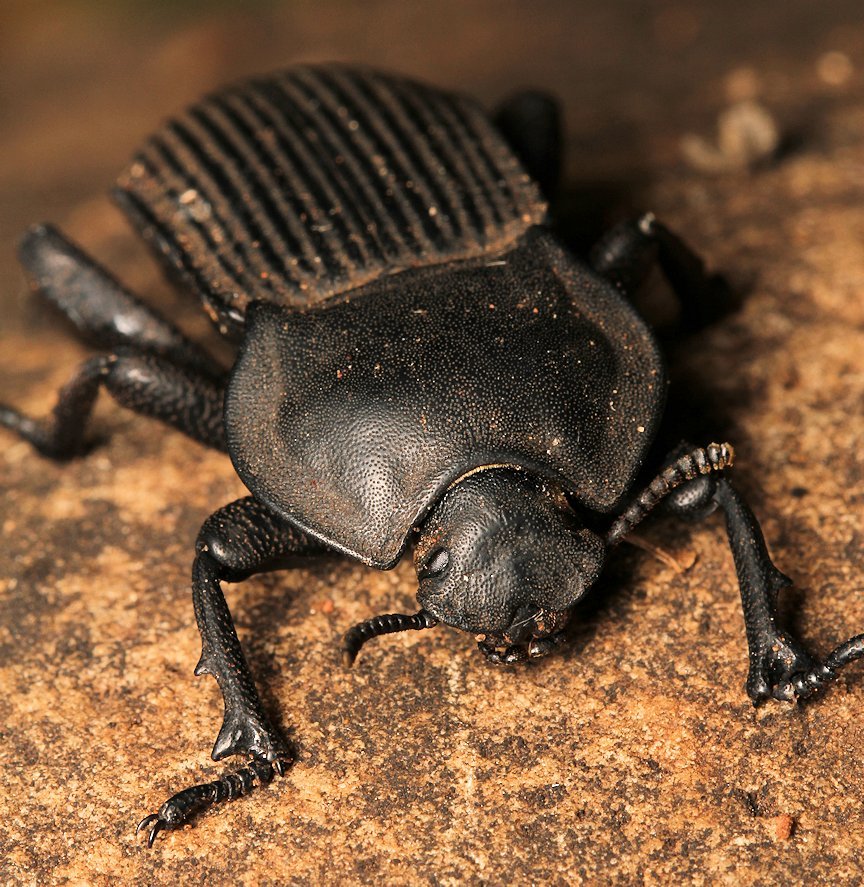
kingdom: Animalia
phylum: Arthropoda
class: Insecta
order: Coleoptera
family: Tenebrionidae
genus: Anomalipus
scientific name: Anomalipus
